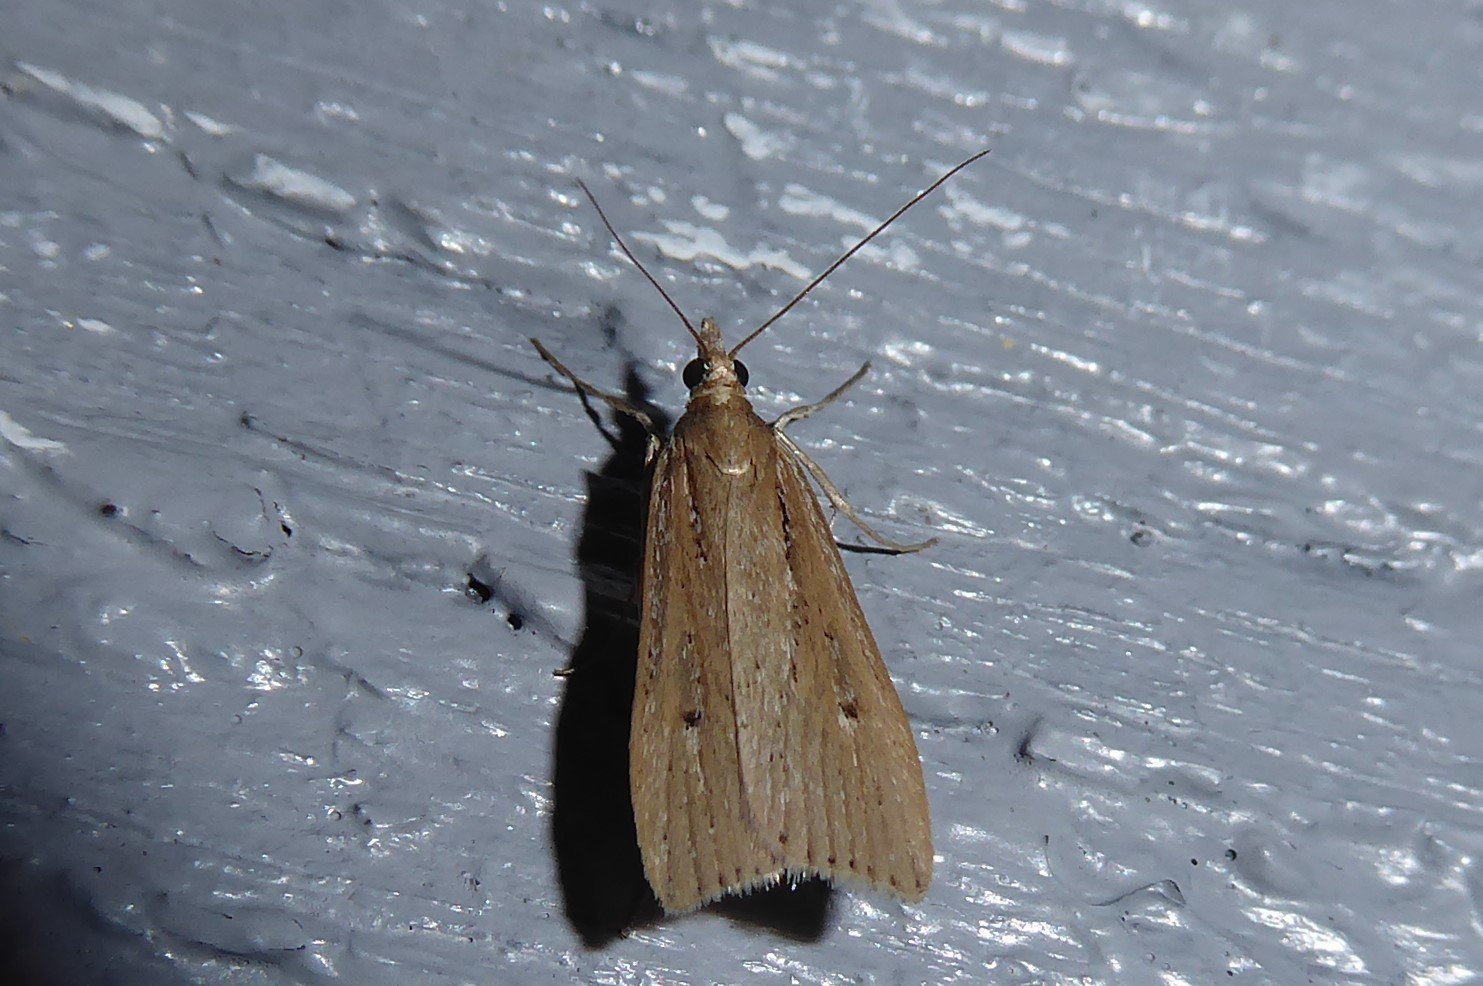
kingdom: Animalia
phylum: Arthropoda
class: Insecta
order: Lepidoptera
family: Crambidae
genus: Eudonia
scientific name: Eudonia sabulosella
